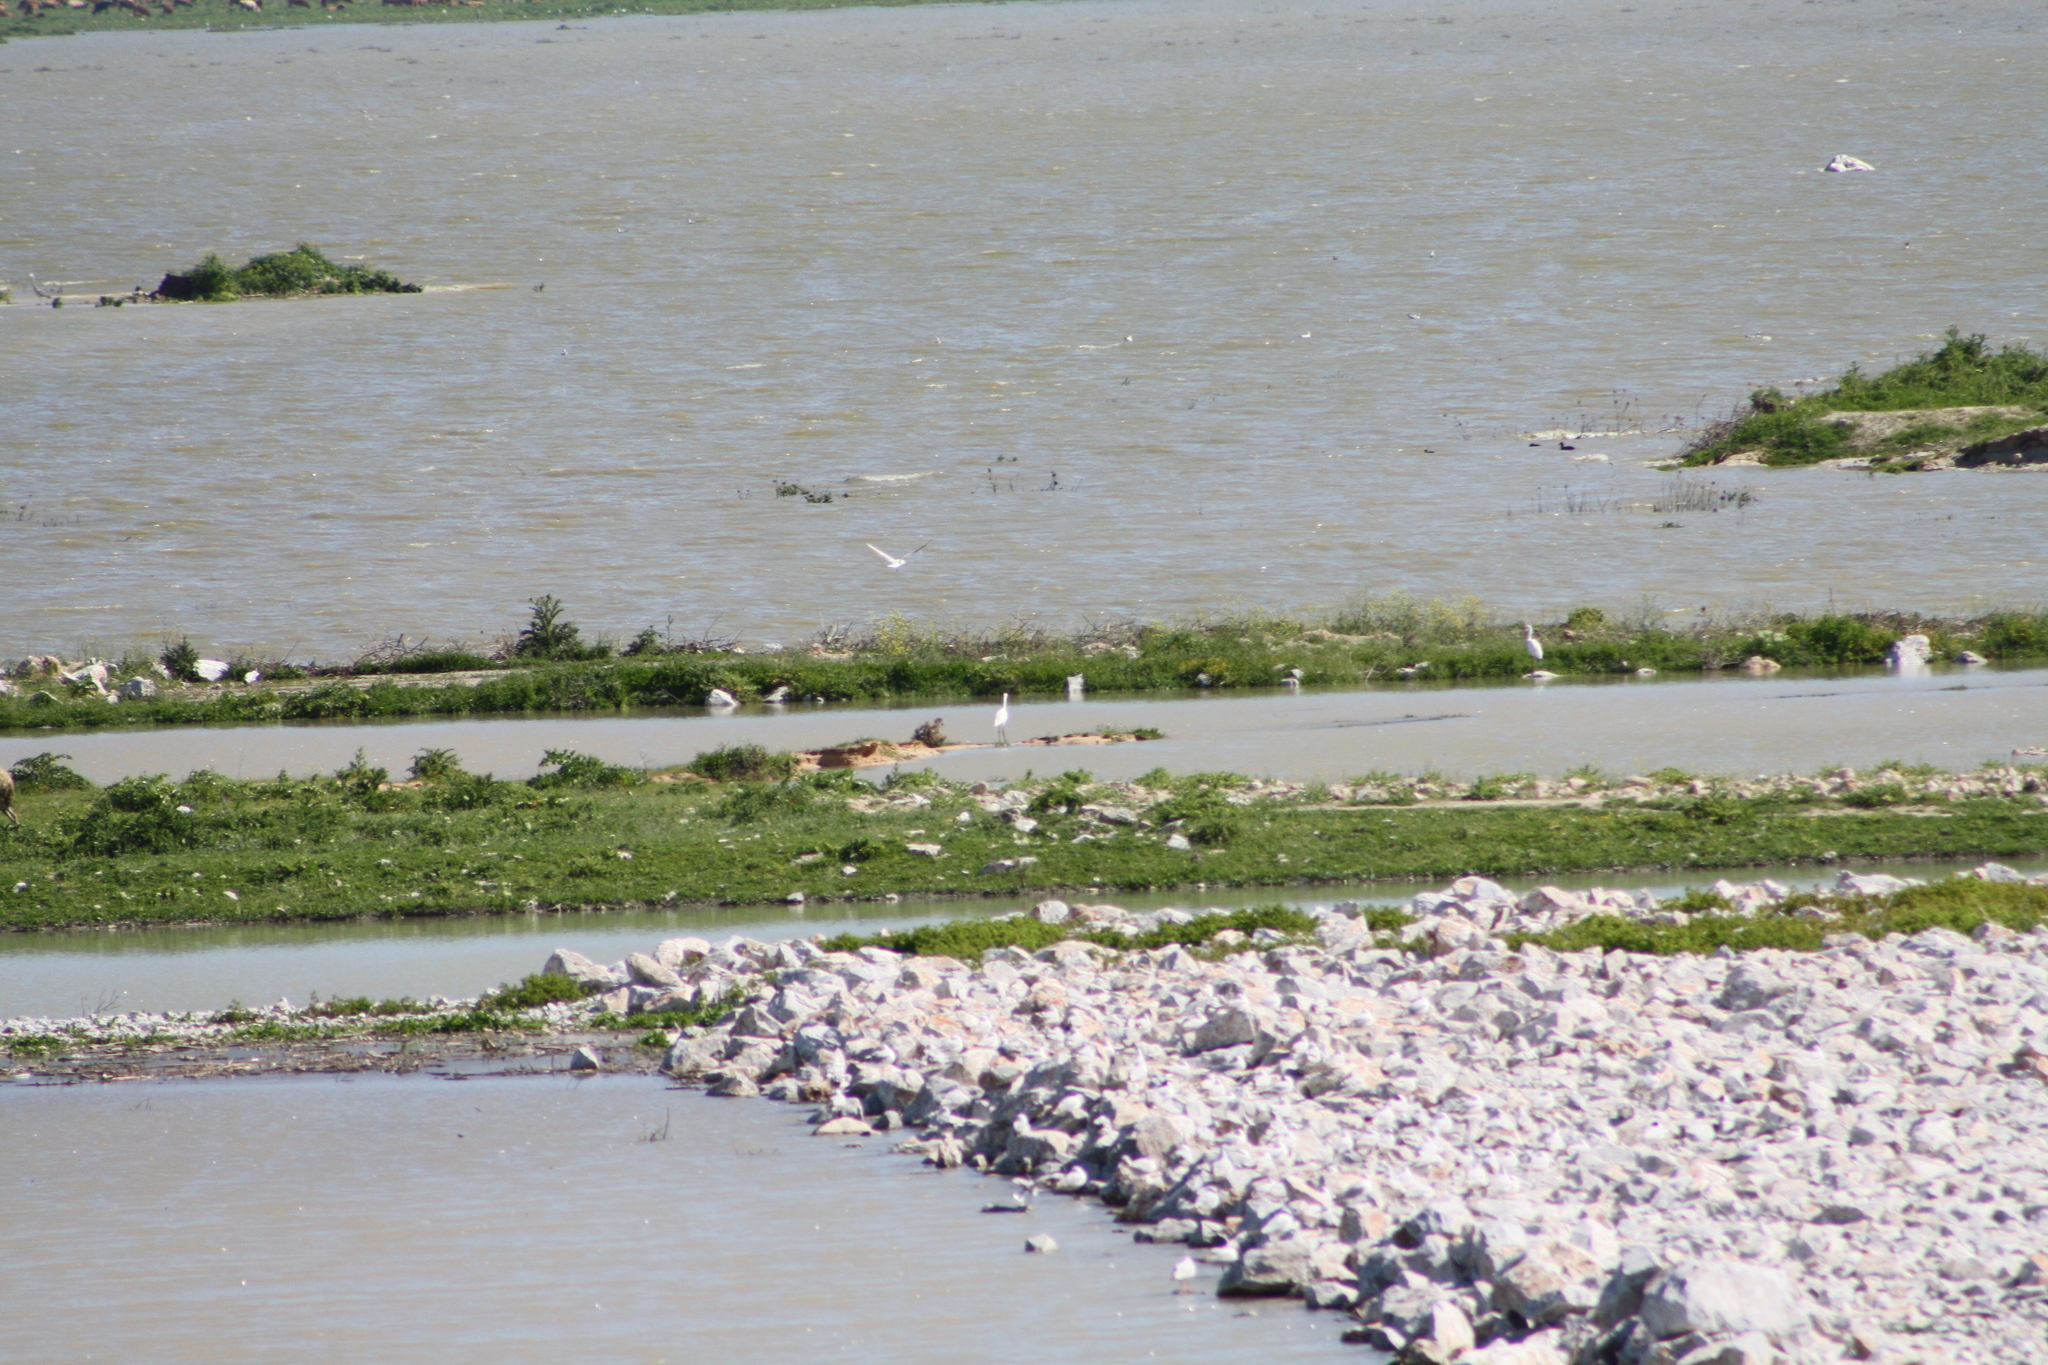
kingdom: Animalia
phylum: Chordata
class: Aves
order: Pelecaniformes
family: Ardeidae
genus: Egretta
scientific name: Egretta garzetta
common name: Little egret
